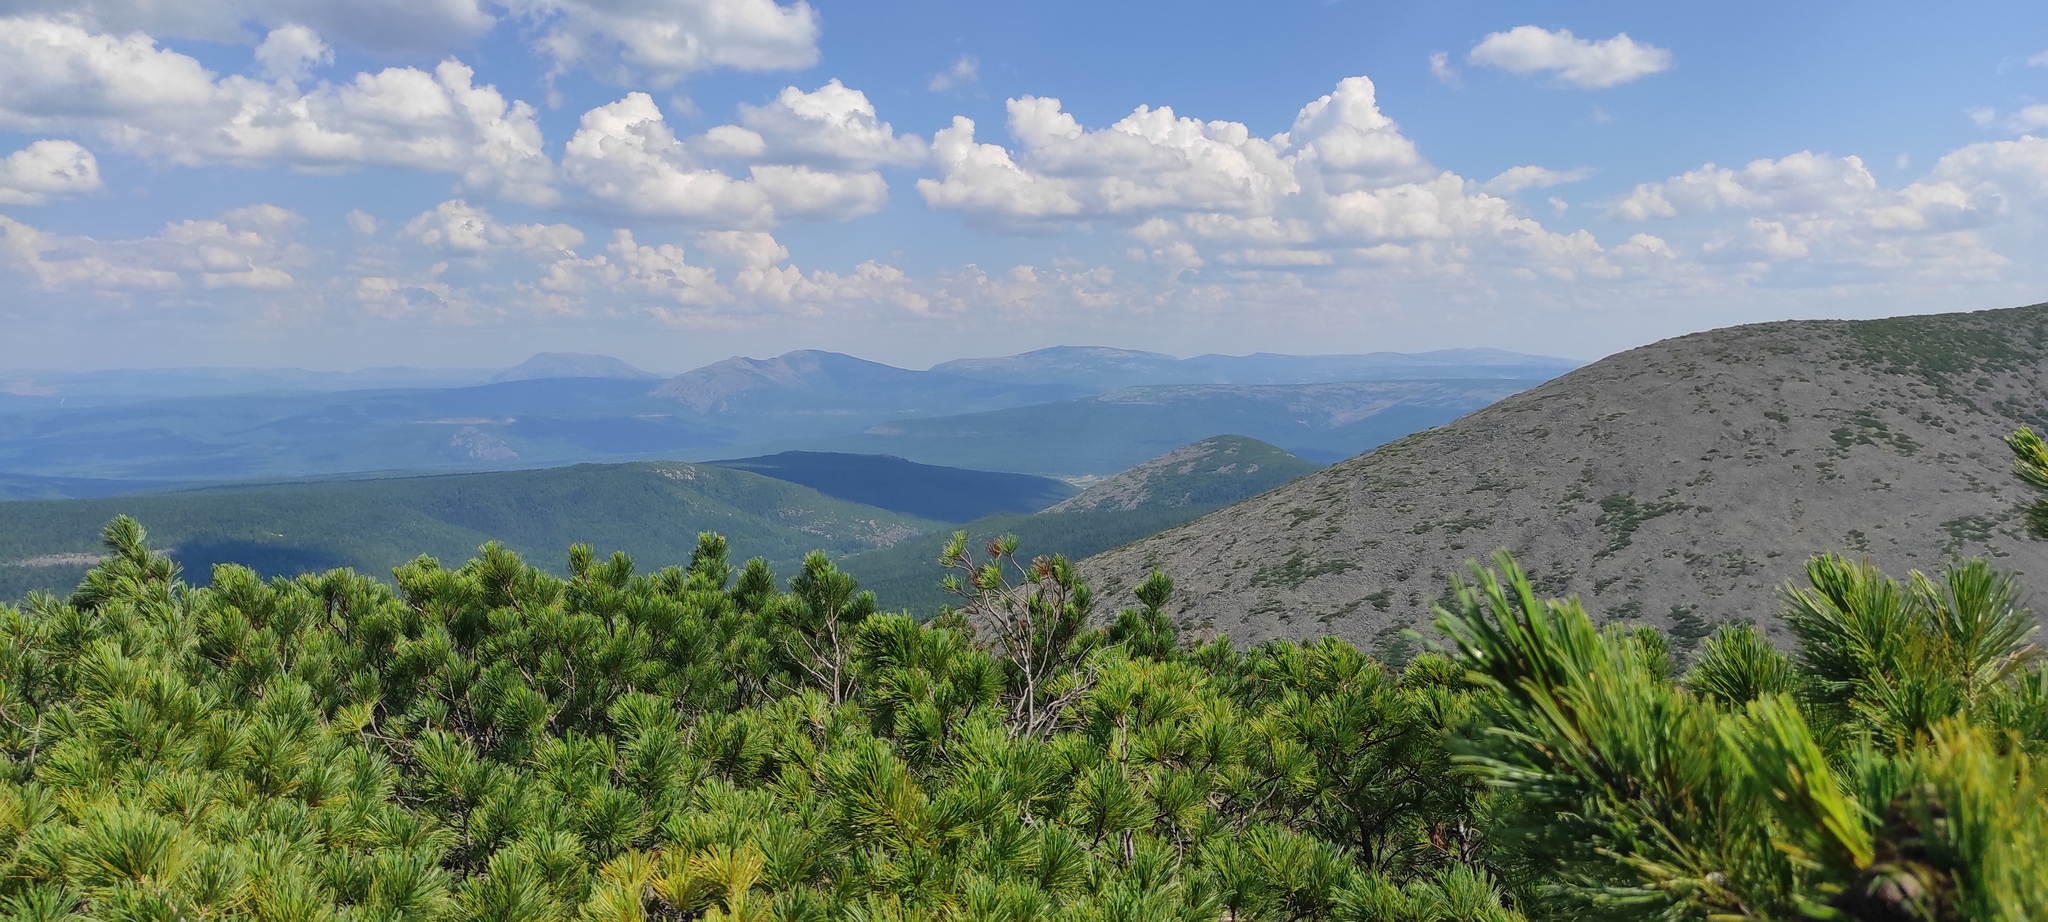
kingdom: Plantae
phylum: Tracheophyta
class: Pinopsida
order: Pinales
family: Pinaceae
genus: Pinus
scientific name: Pinus pumila
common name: Dwarf siberian pine
